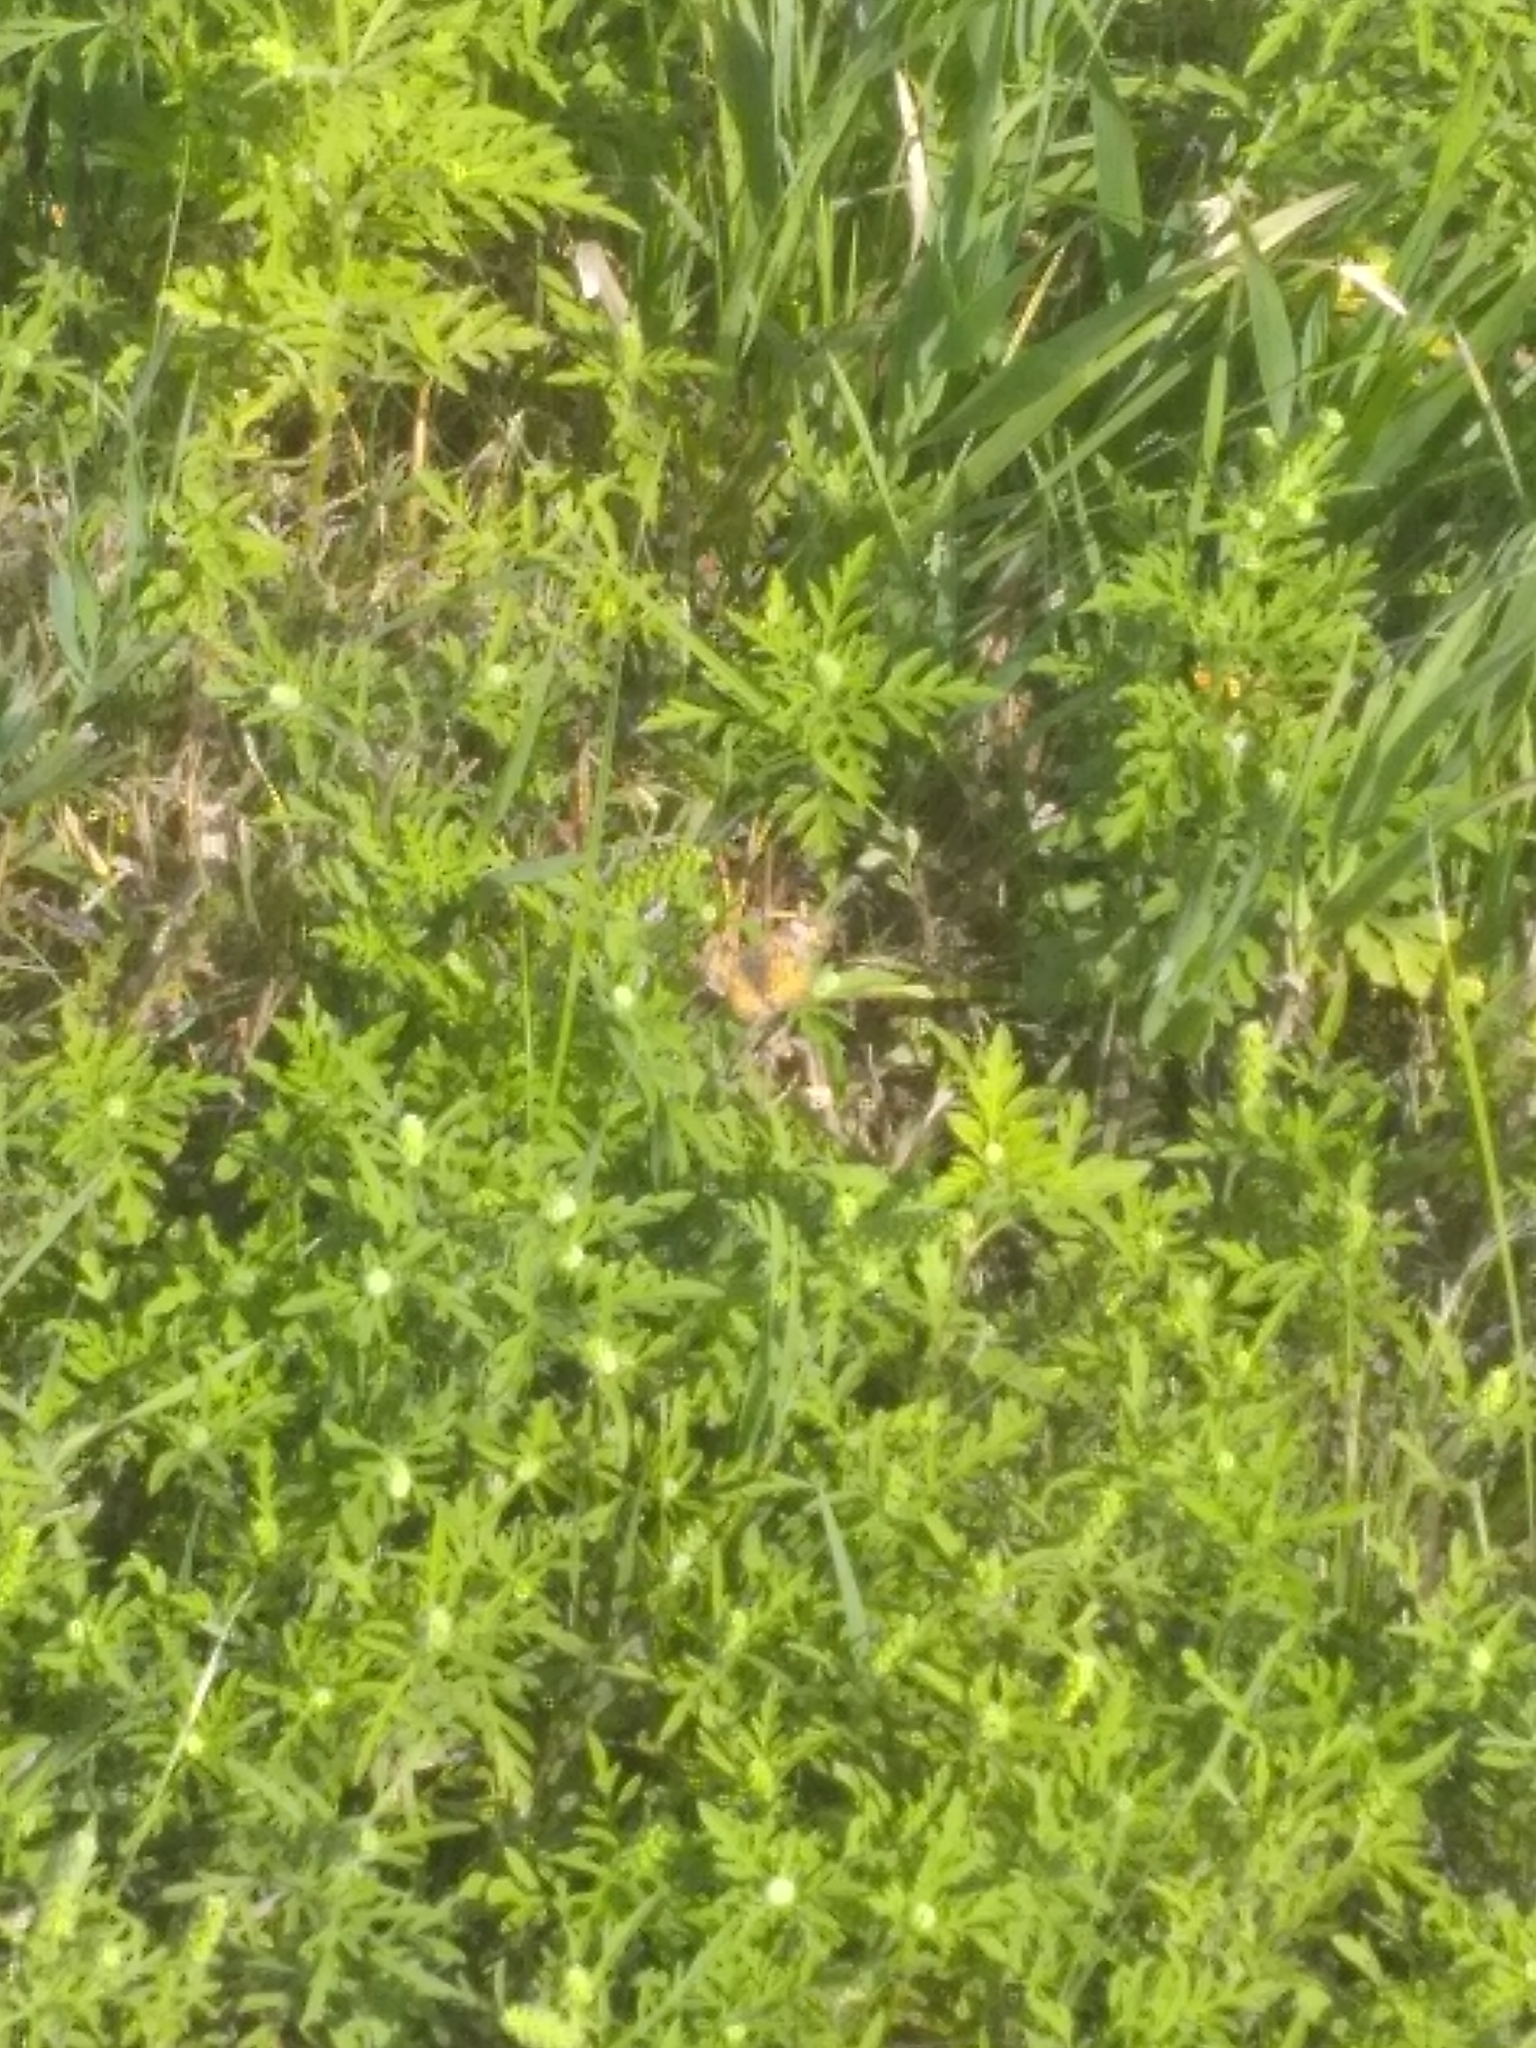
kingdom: Animalia
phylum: Arthropoda
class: Insecta
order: Lepidoptera
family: Nymphalidae
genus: Phyciodes
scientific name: Phyciodes tharos
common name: Pearl crescent
